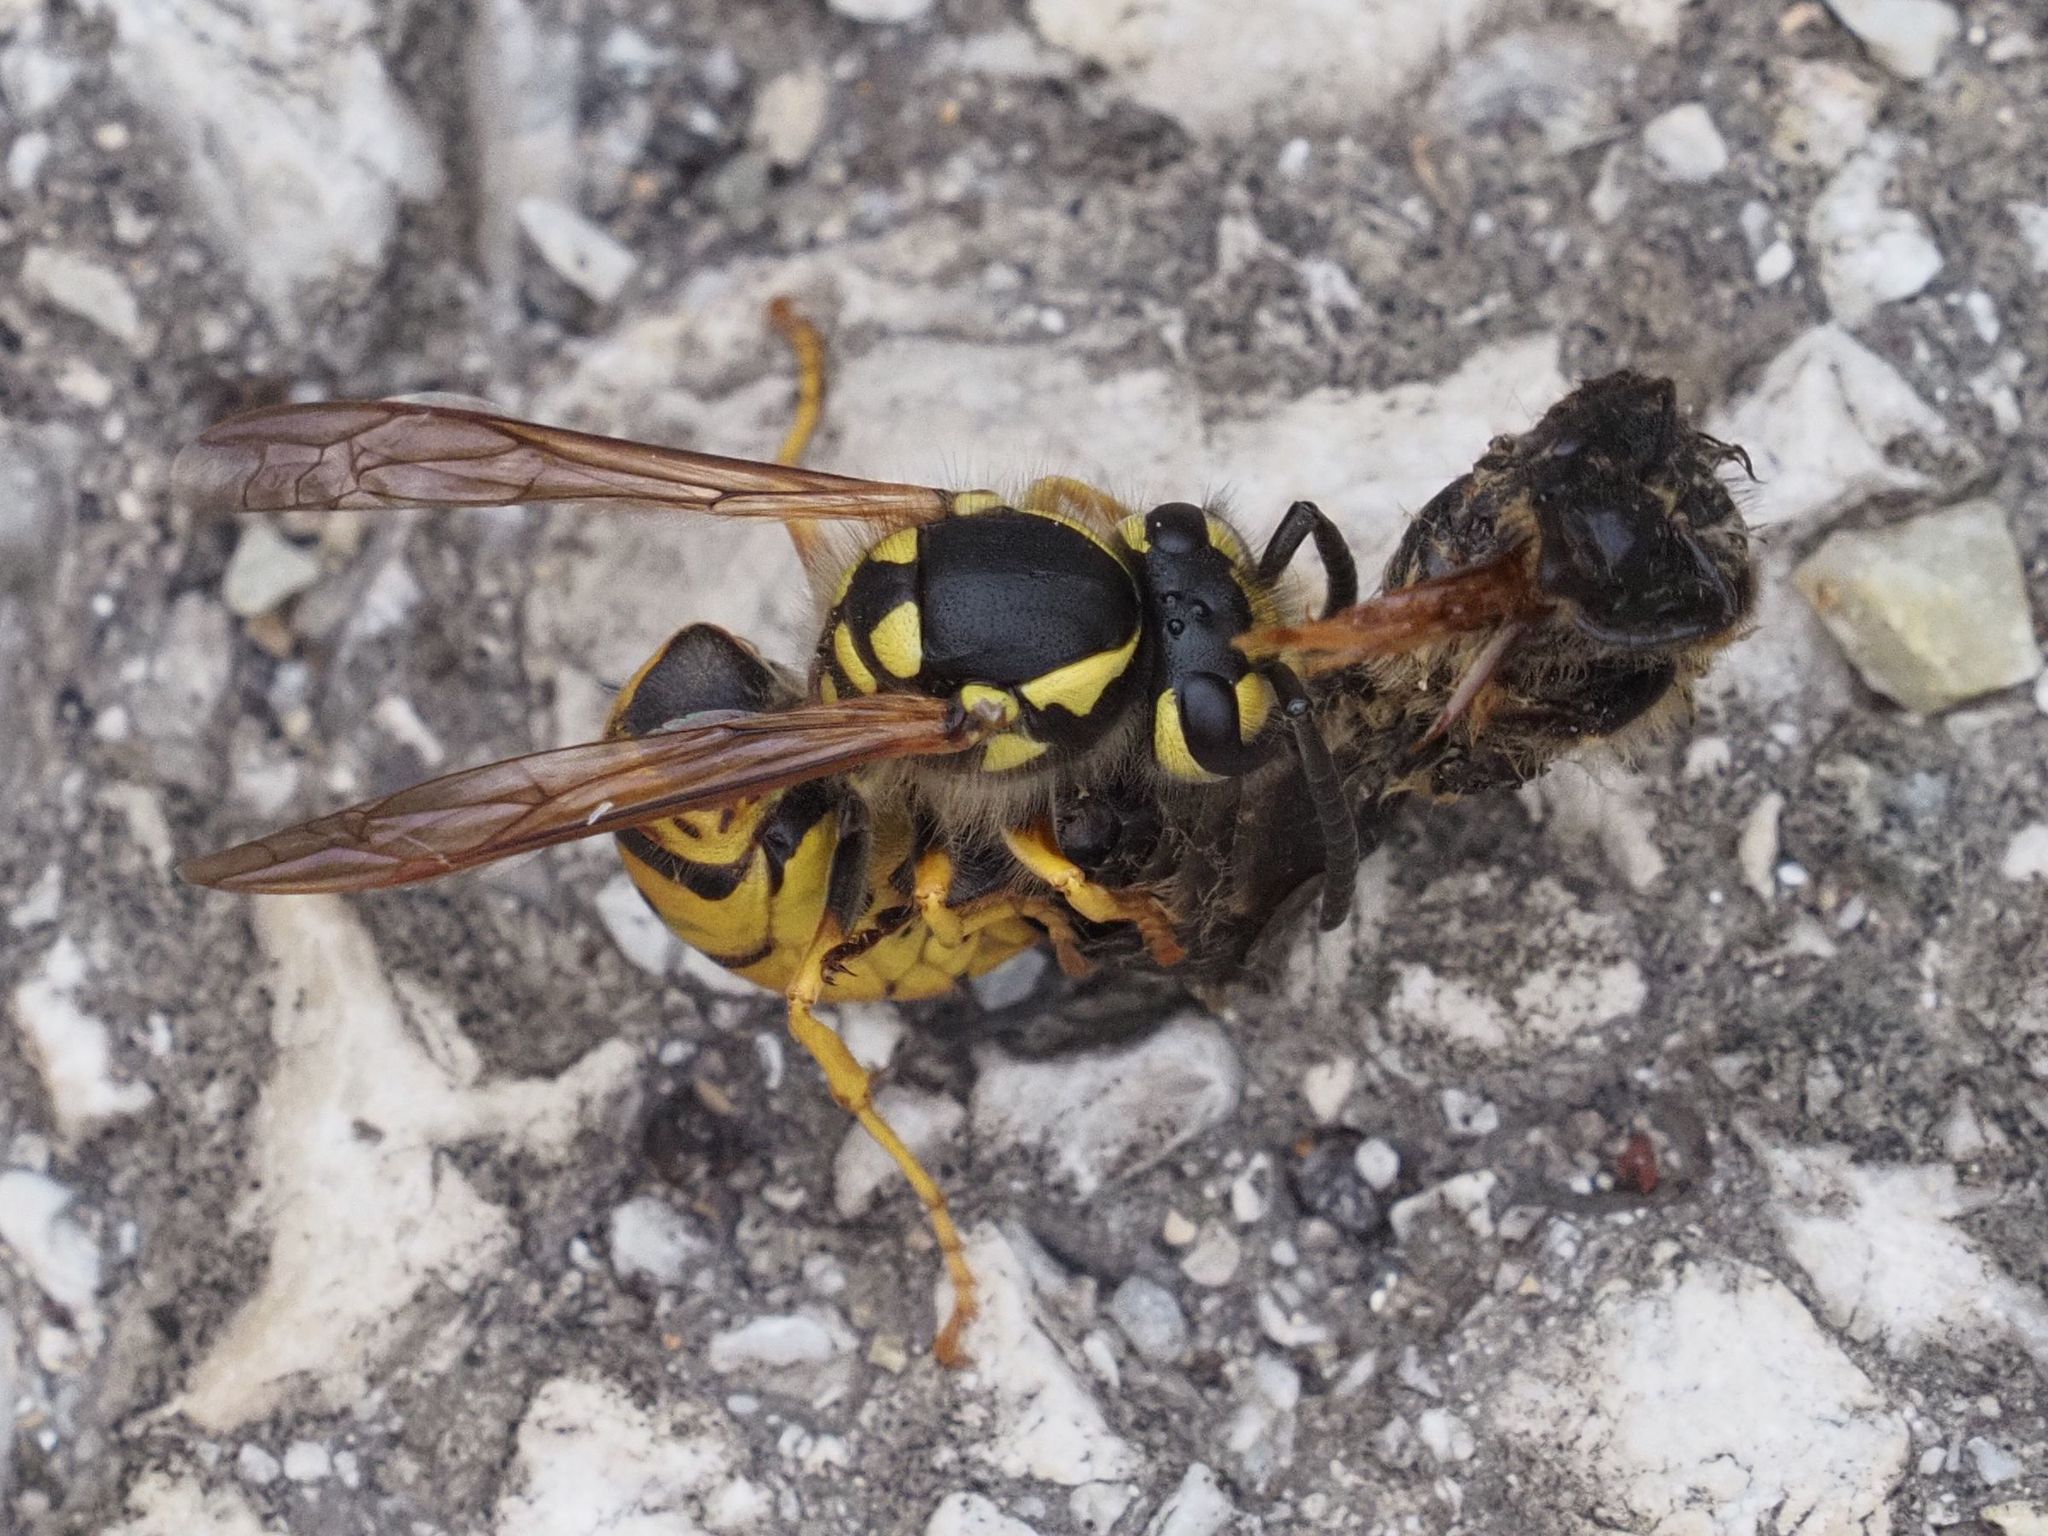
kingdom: Animalia
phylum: Arthropoda
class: Insecta
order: Hymenoptera
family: Vespidae
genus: Vespula
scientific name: Vespula germanica
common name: German wasp
